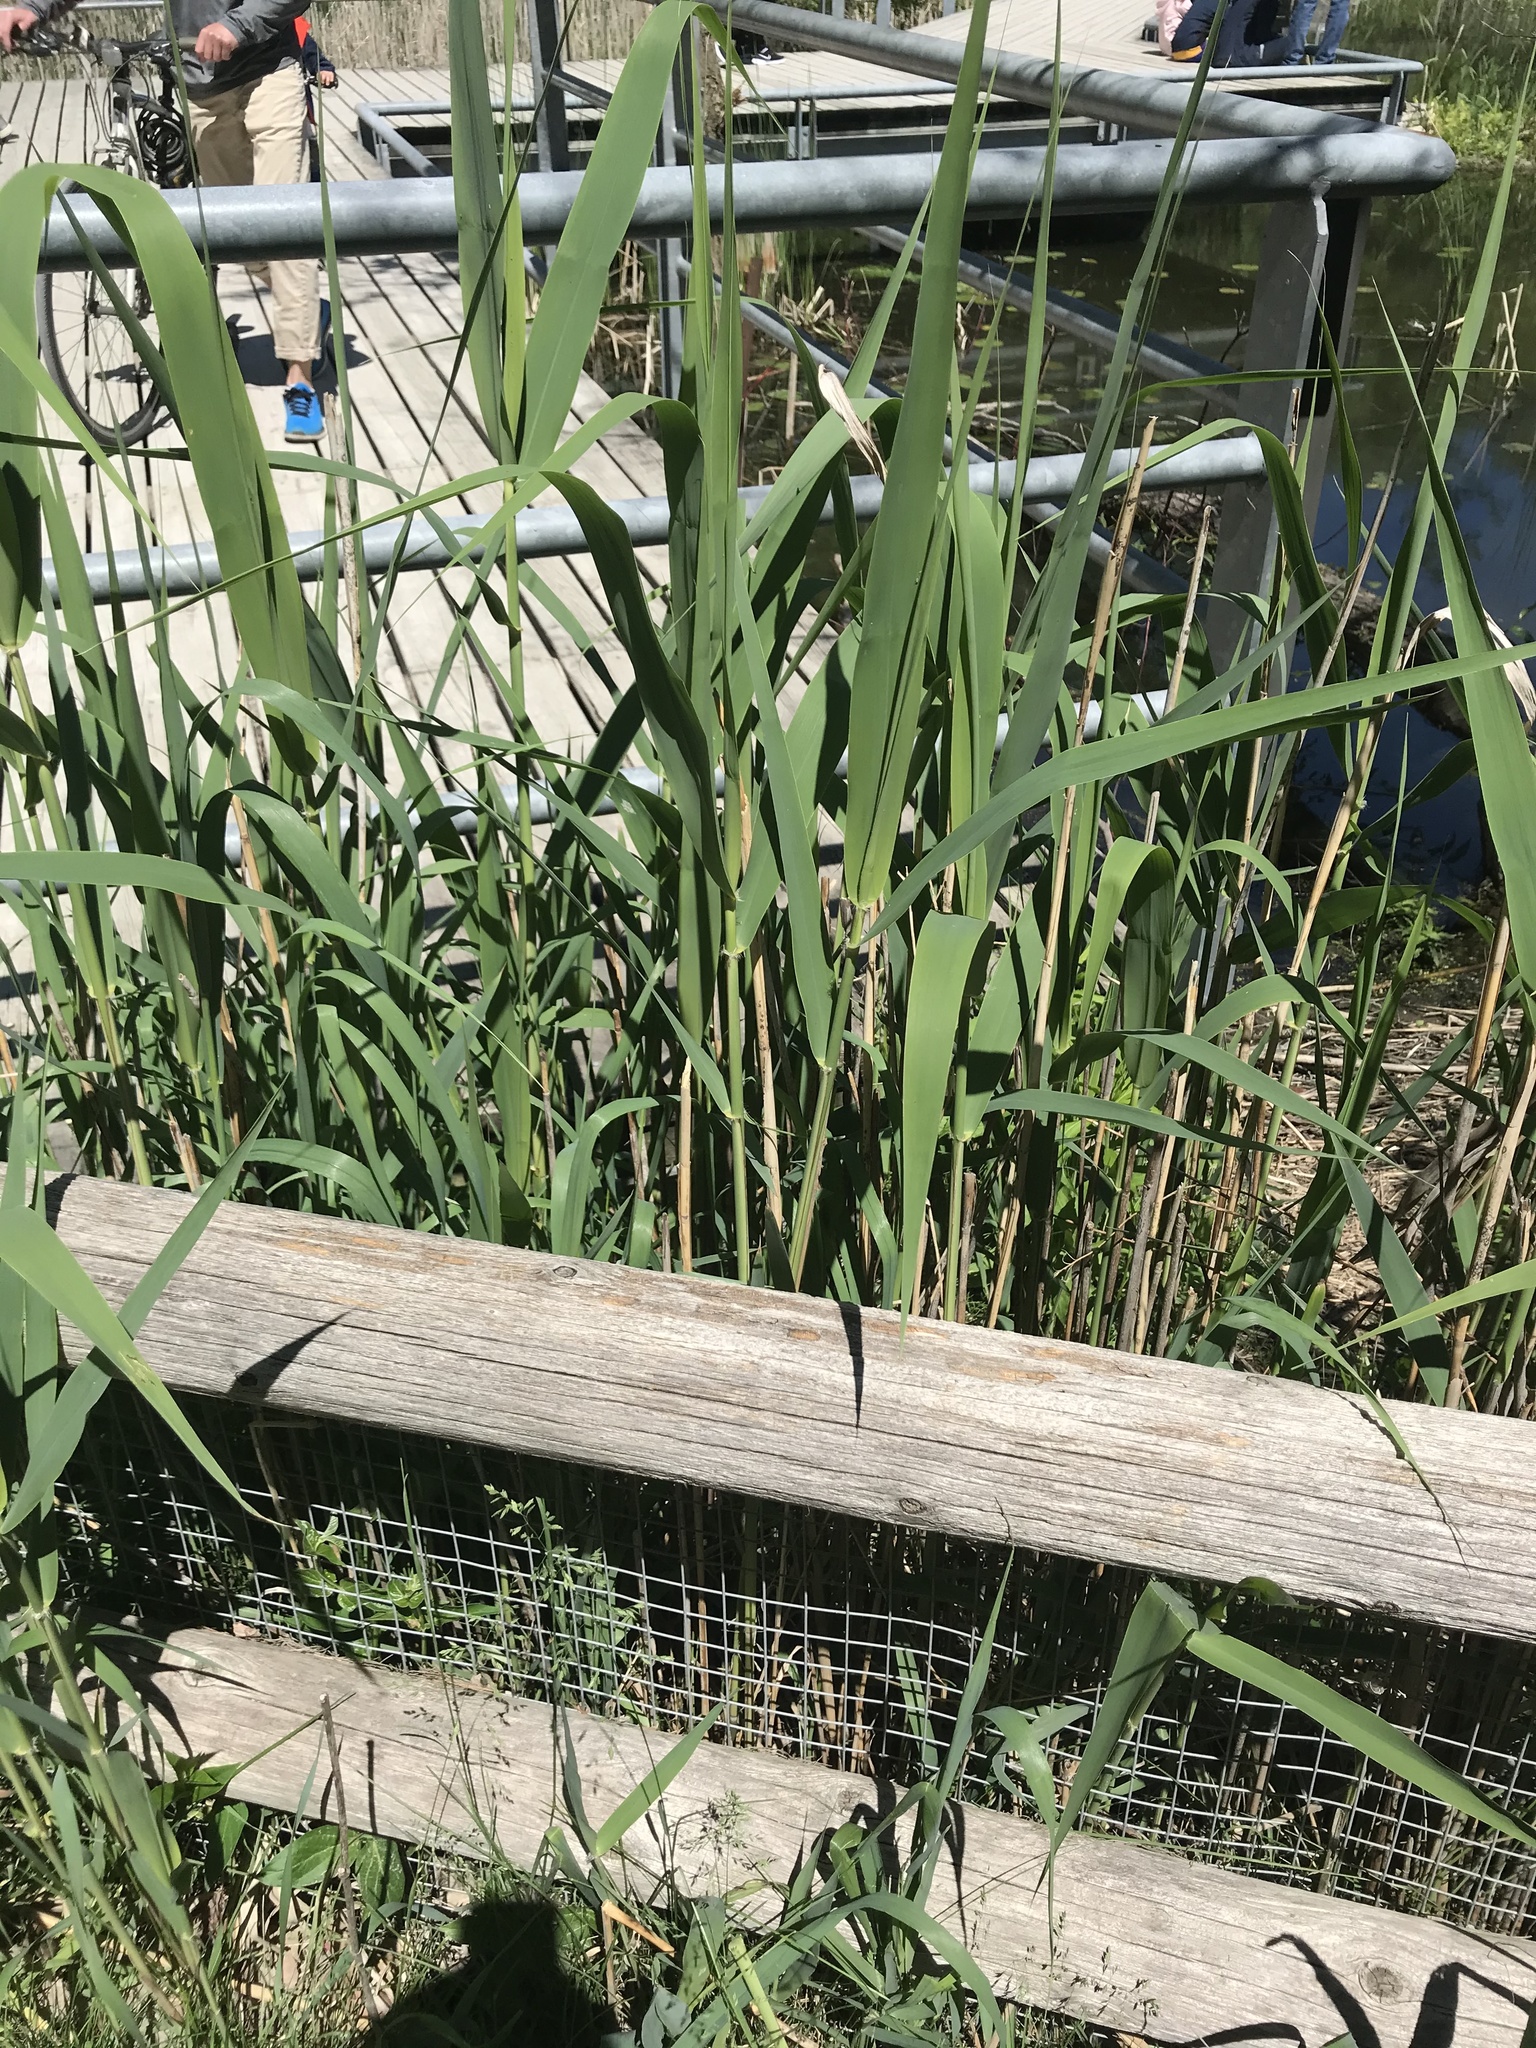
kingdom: Plantae
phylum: Tracheophyta
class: Liliopsida
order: Poales
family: Poaceae
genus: Phragmites
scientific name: Phragmites australis
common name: Common reed
